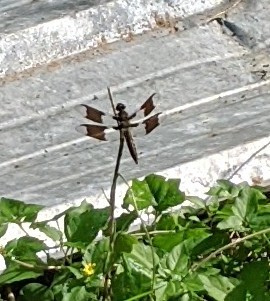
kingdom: Animalia
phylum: Arthropoda
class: Insecta
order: Odonata
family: Libellulidae
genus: Plathemis
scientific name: Plathemis lydia
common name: Common whitetail
